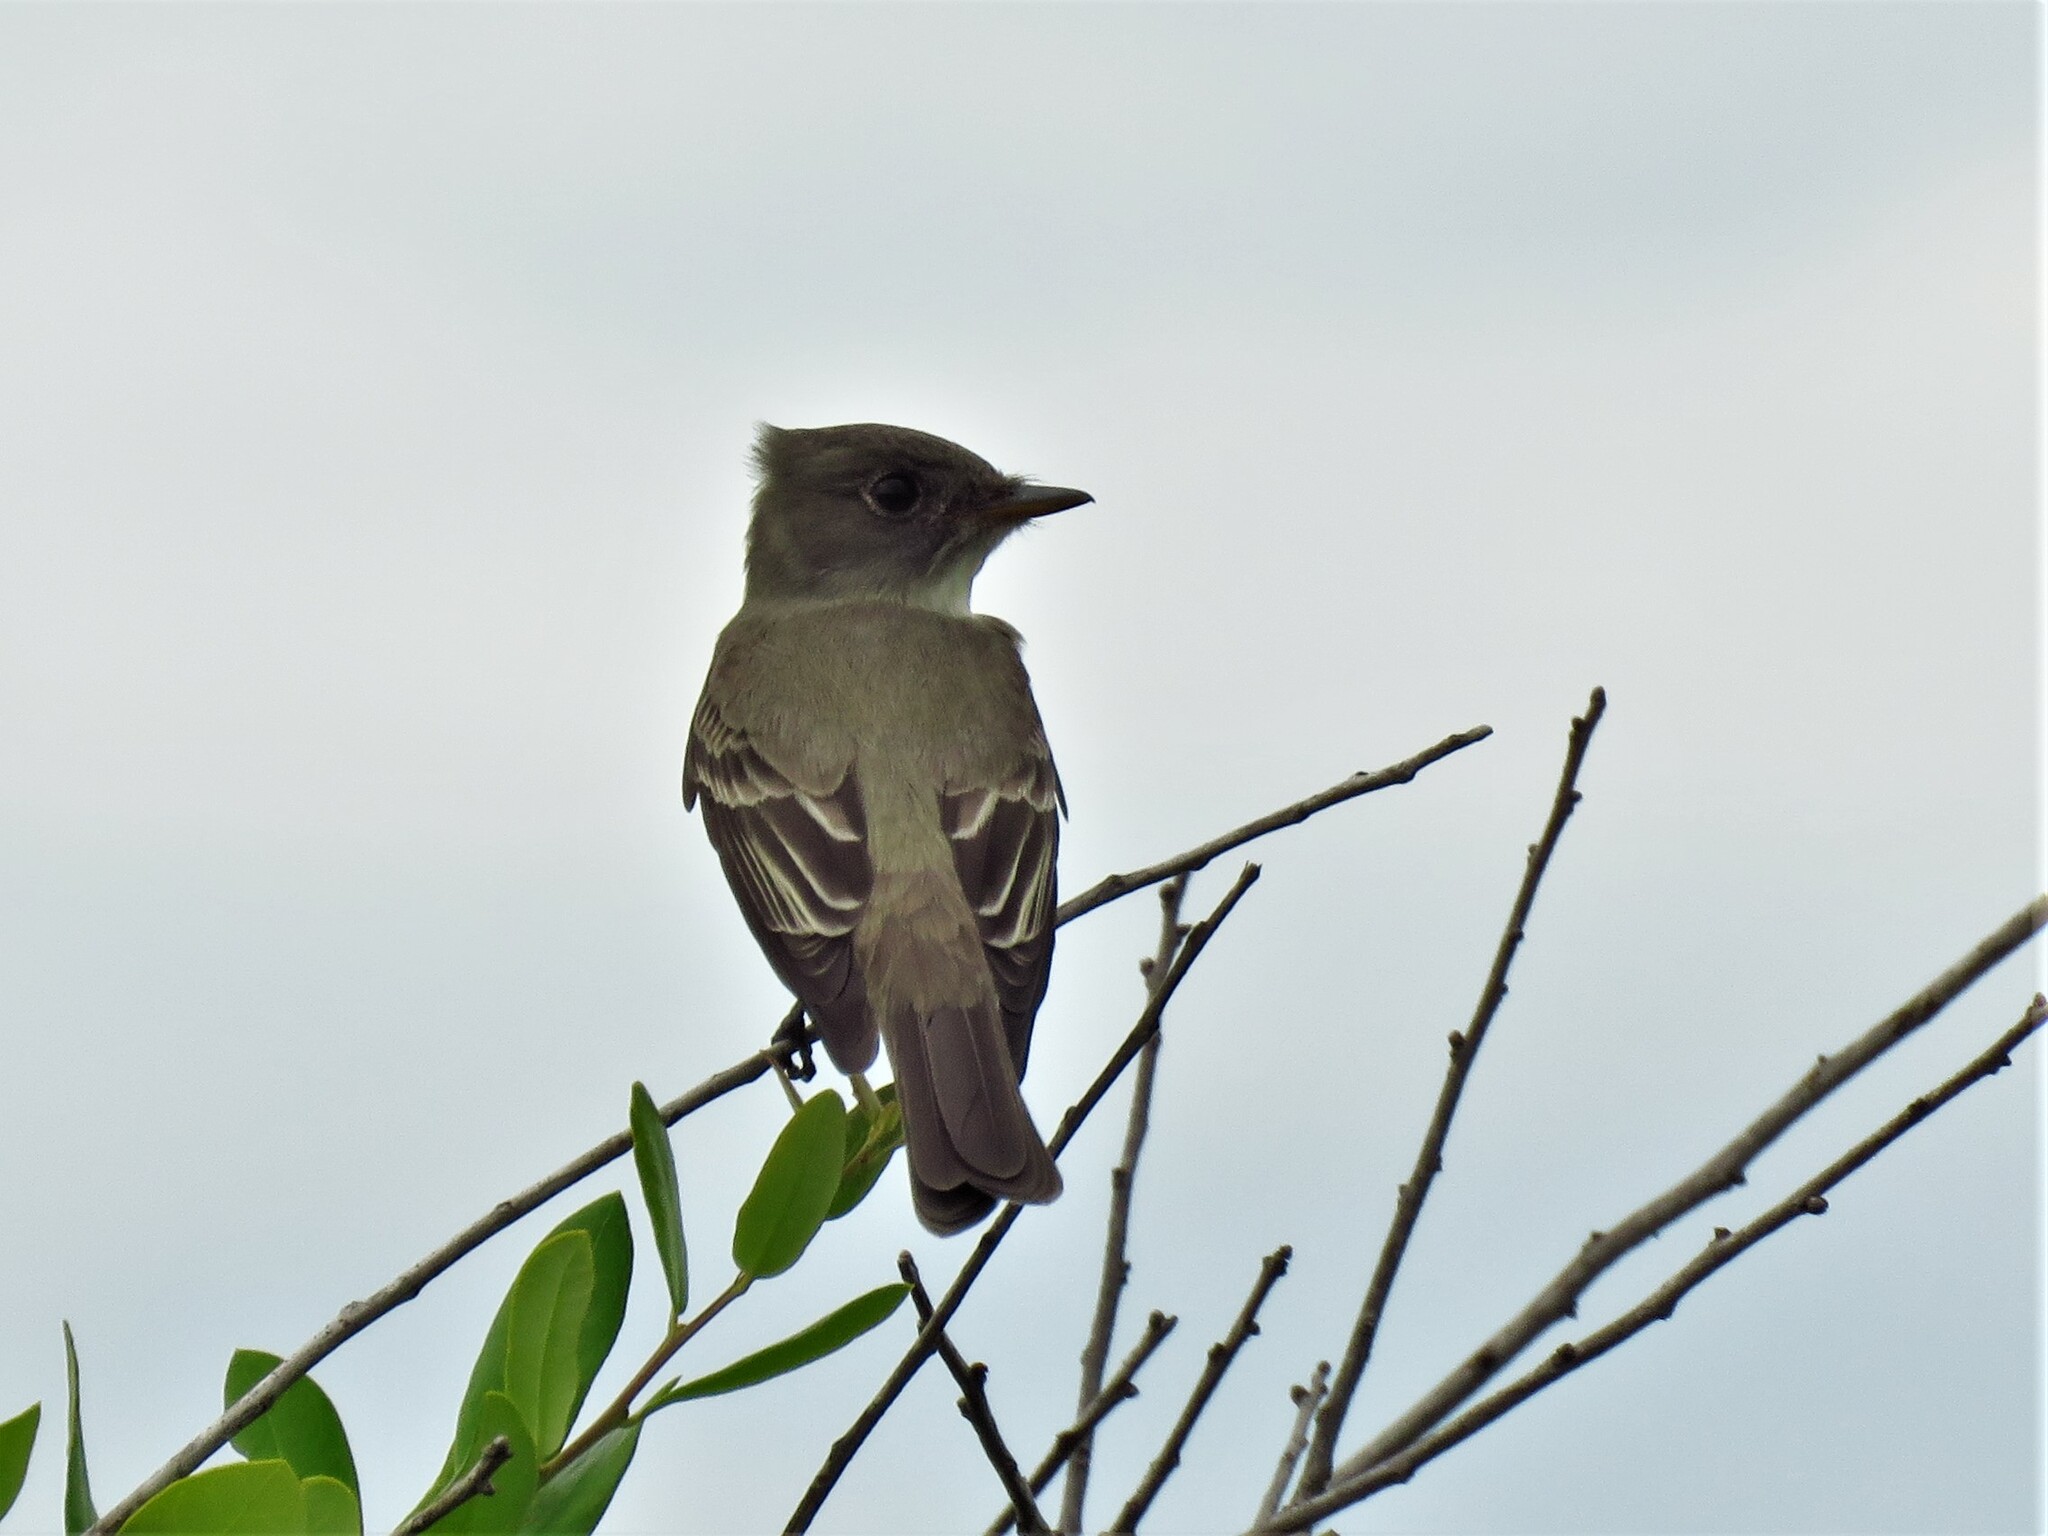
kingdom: Animalia
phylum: Chordata
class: Aves
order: Passeriformes
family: Tyrannidae
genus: Contopus
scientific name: Contopus virens
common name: Eastern wood-pewee
